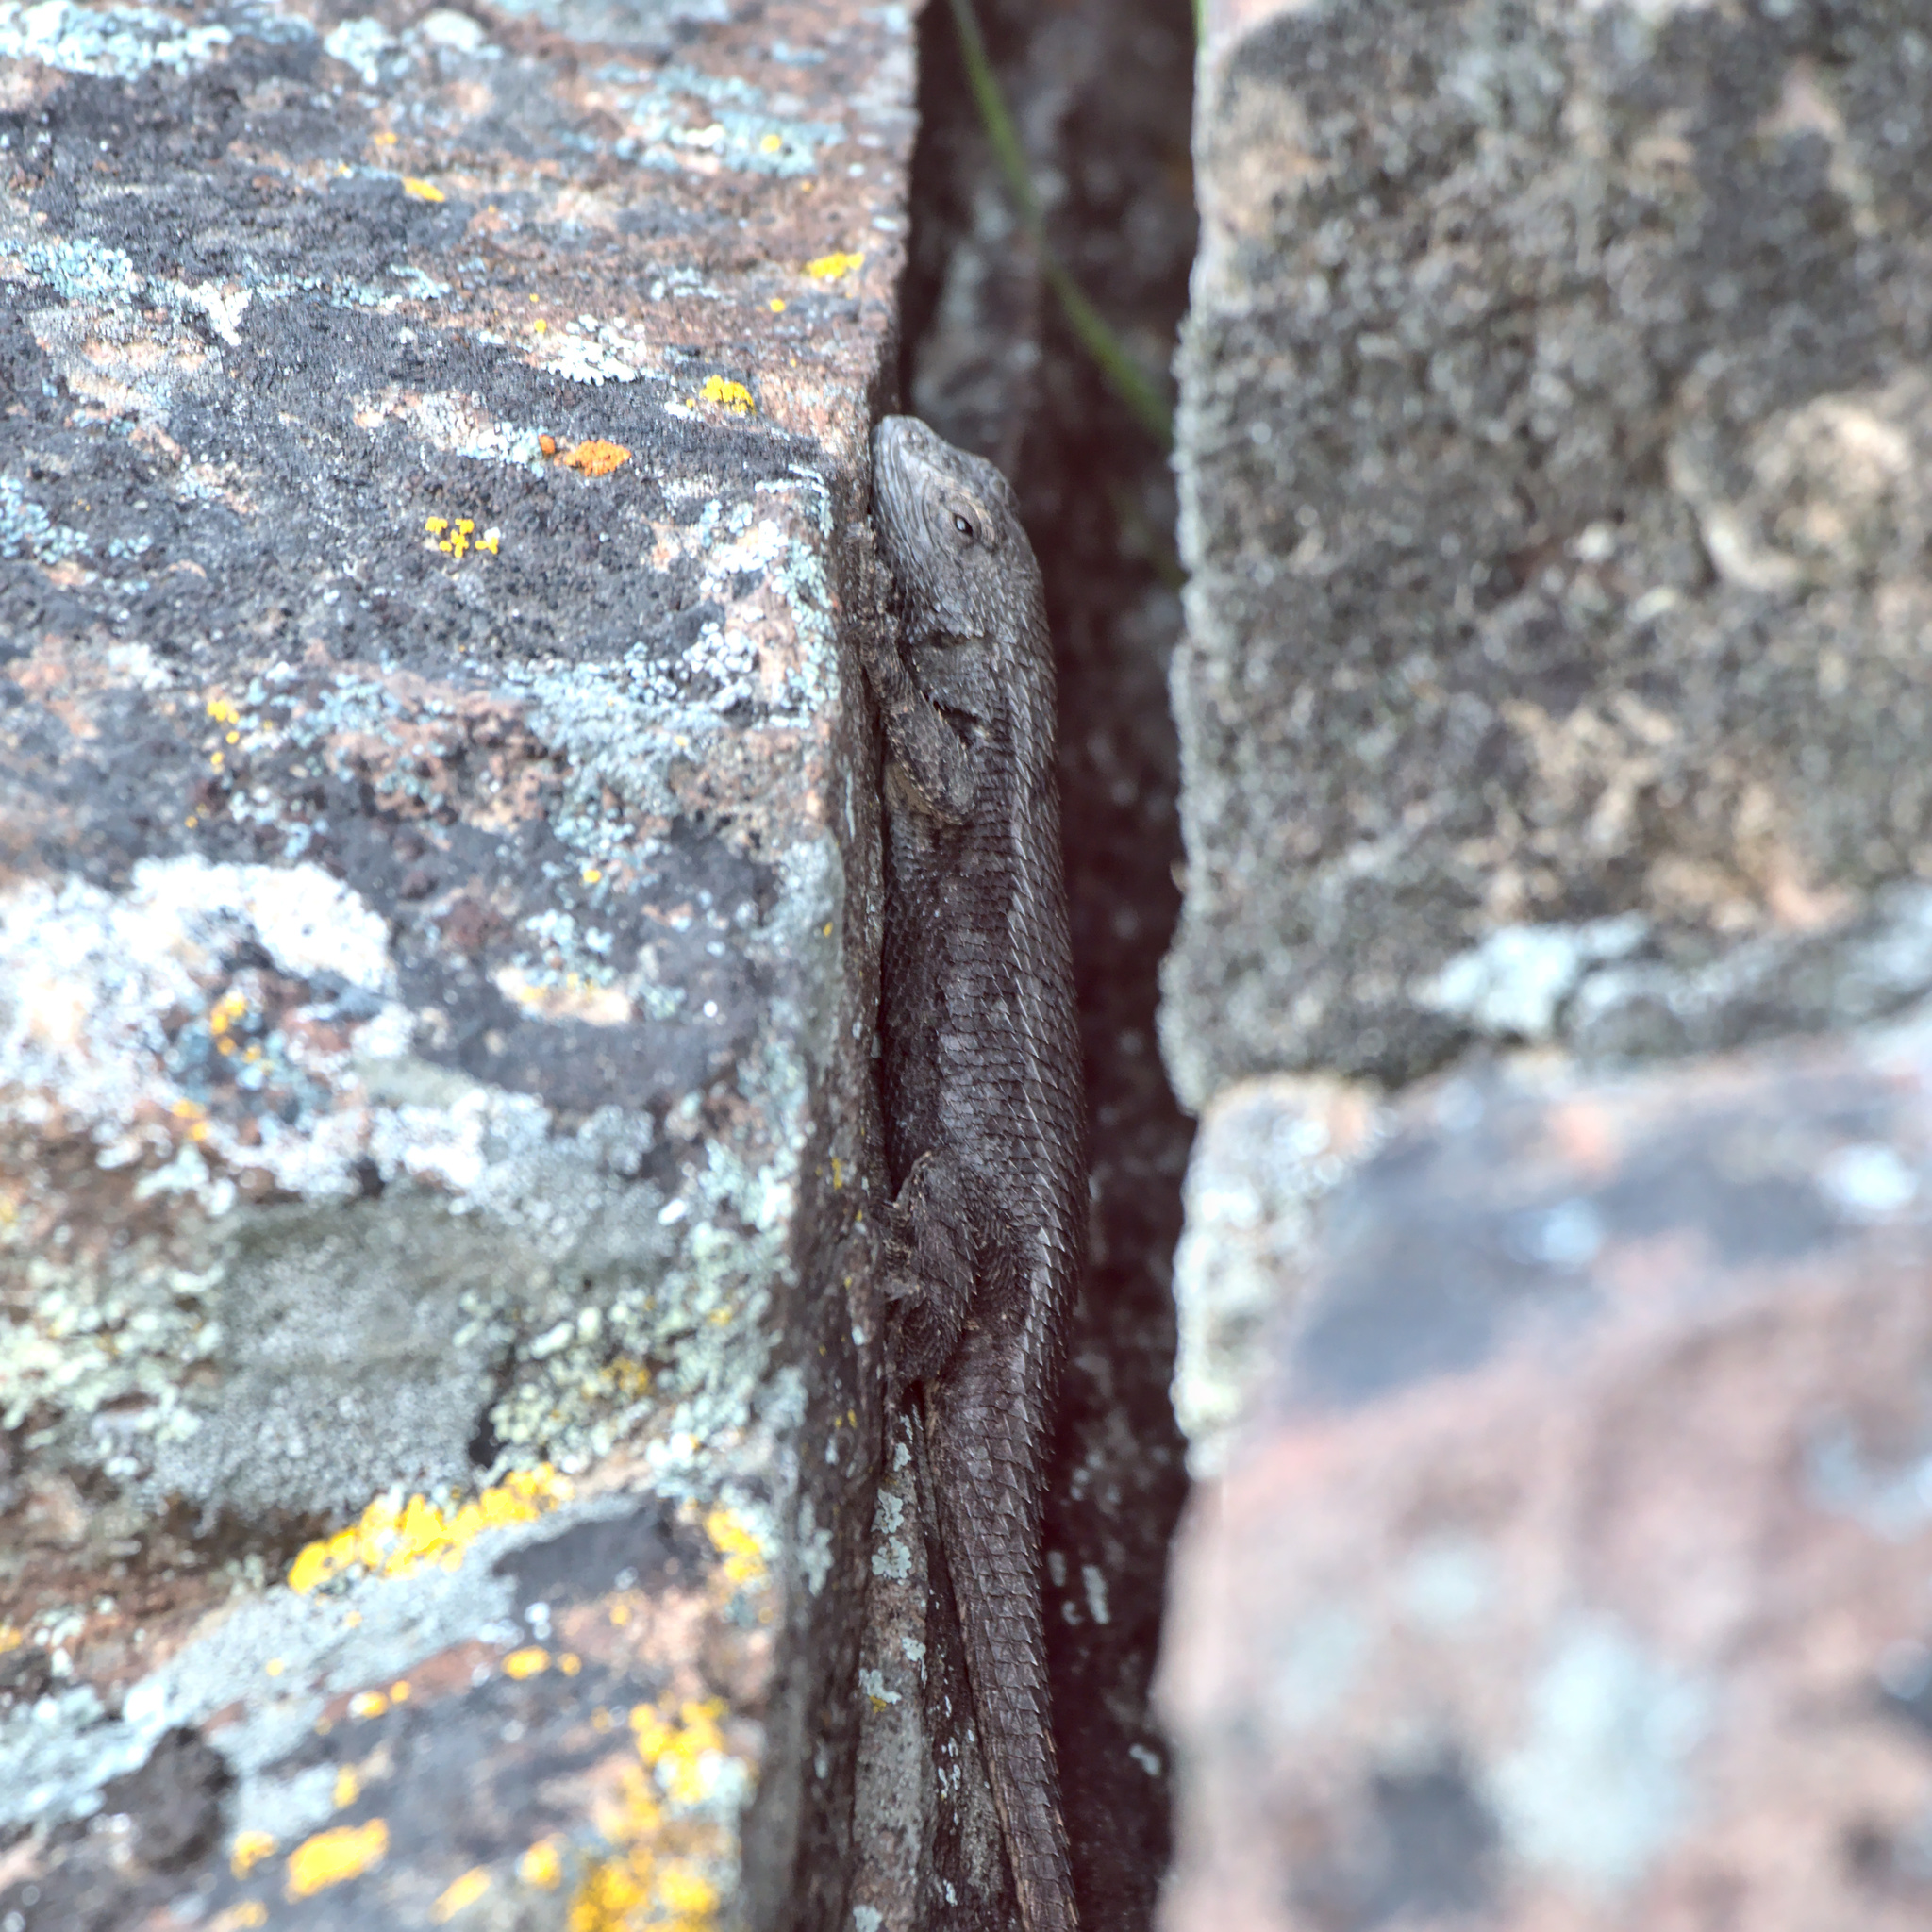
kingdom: Animalia
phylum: Chordata
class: Squamata
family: Phrynosomatidae
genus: Sceloporus
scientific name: Sceloporus occidentalis
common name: Western fence lizard
